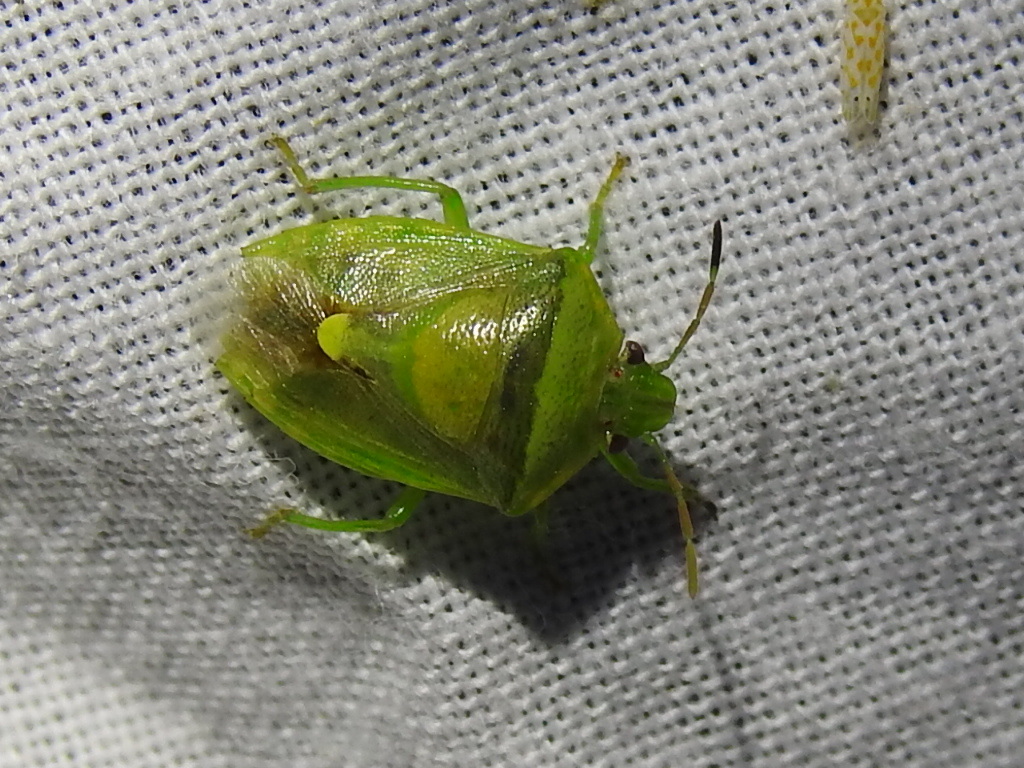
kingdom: Animalia
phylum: Arthropoda
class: Insecta
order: Hemiptera
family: Pentatomidae
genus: Banasa
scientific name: Banasa dimidiata
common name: Green burgundy stink bug
